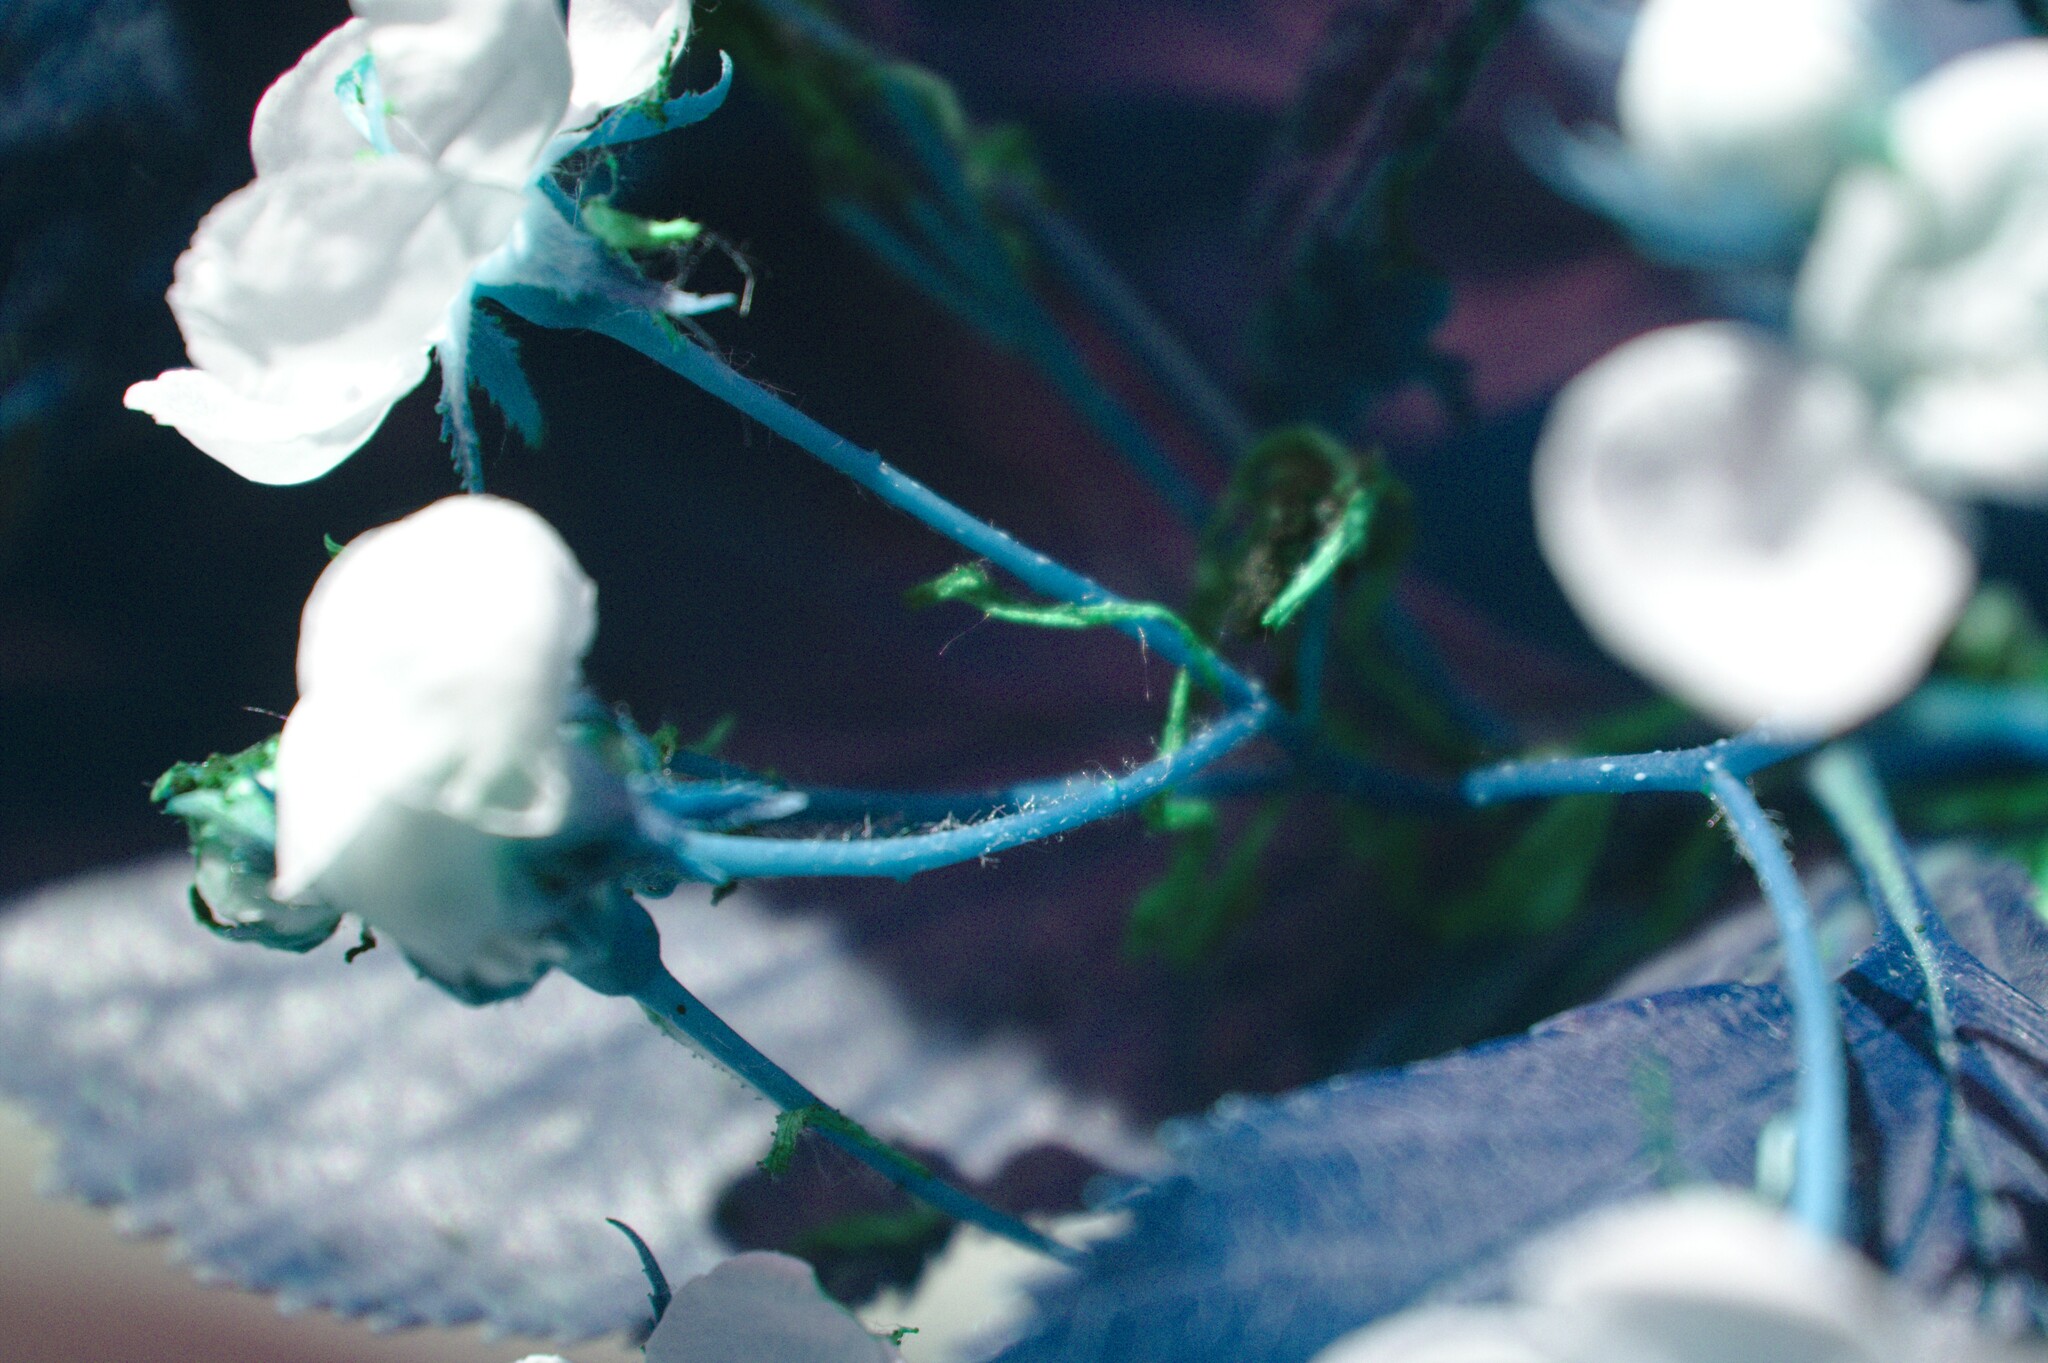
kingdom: Plantae
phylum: Tracheophyta
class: Magnoliopsida
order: Rosales
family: Rosaceae
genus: Crataegus
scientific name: Crataegus macracantha
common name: Large-thorn hawthorn
